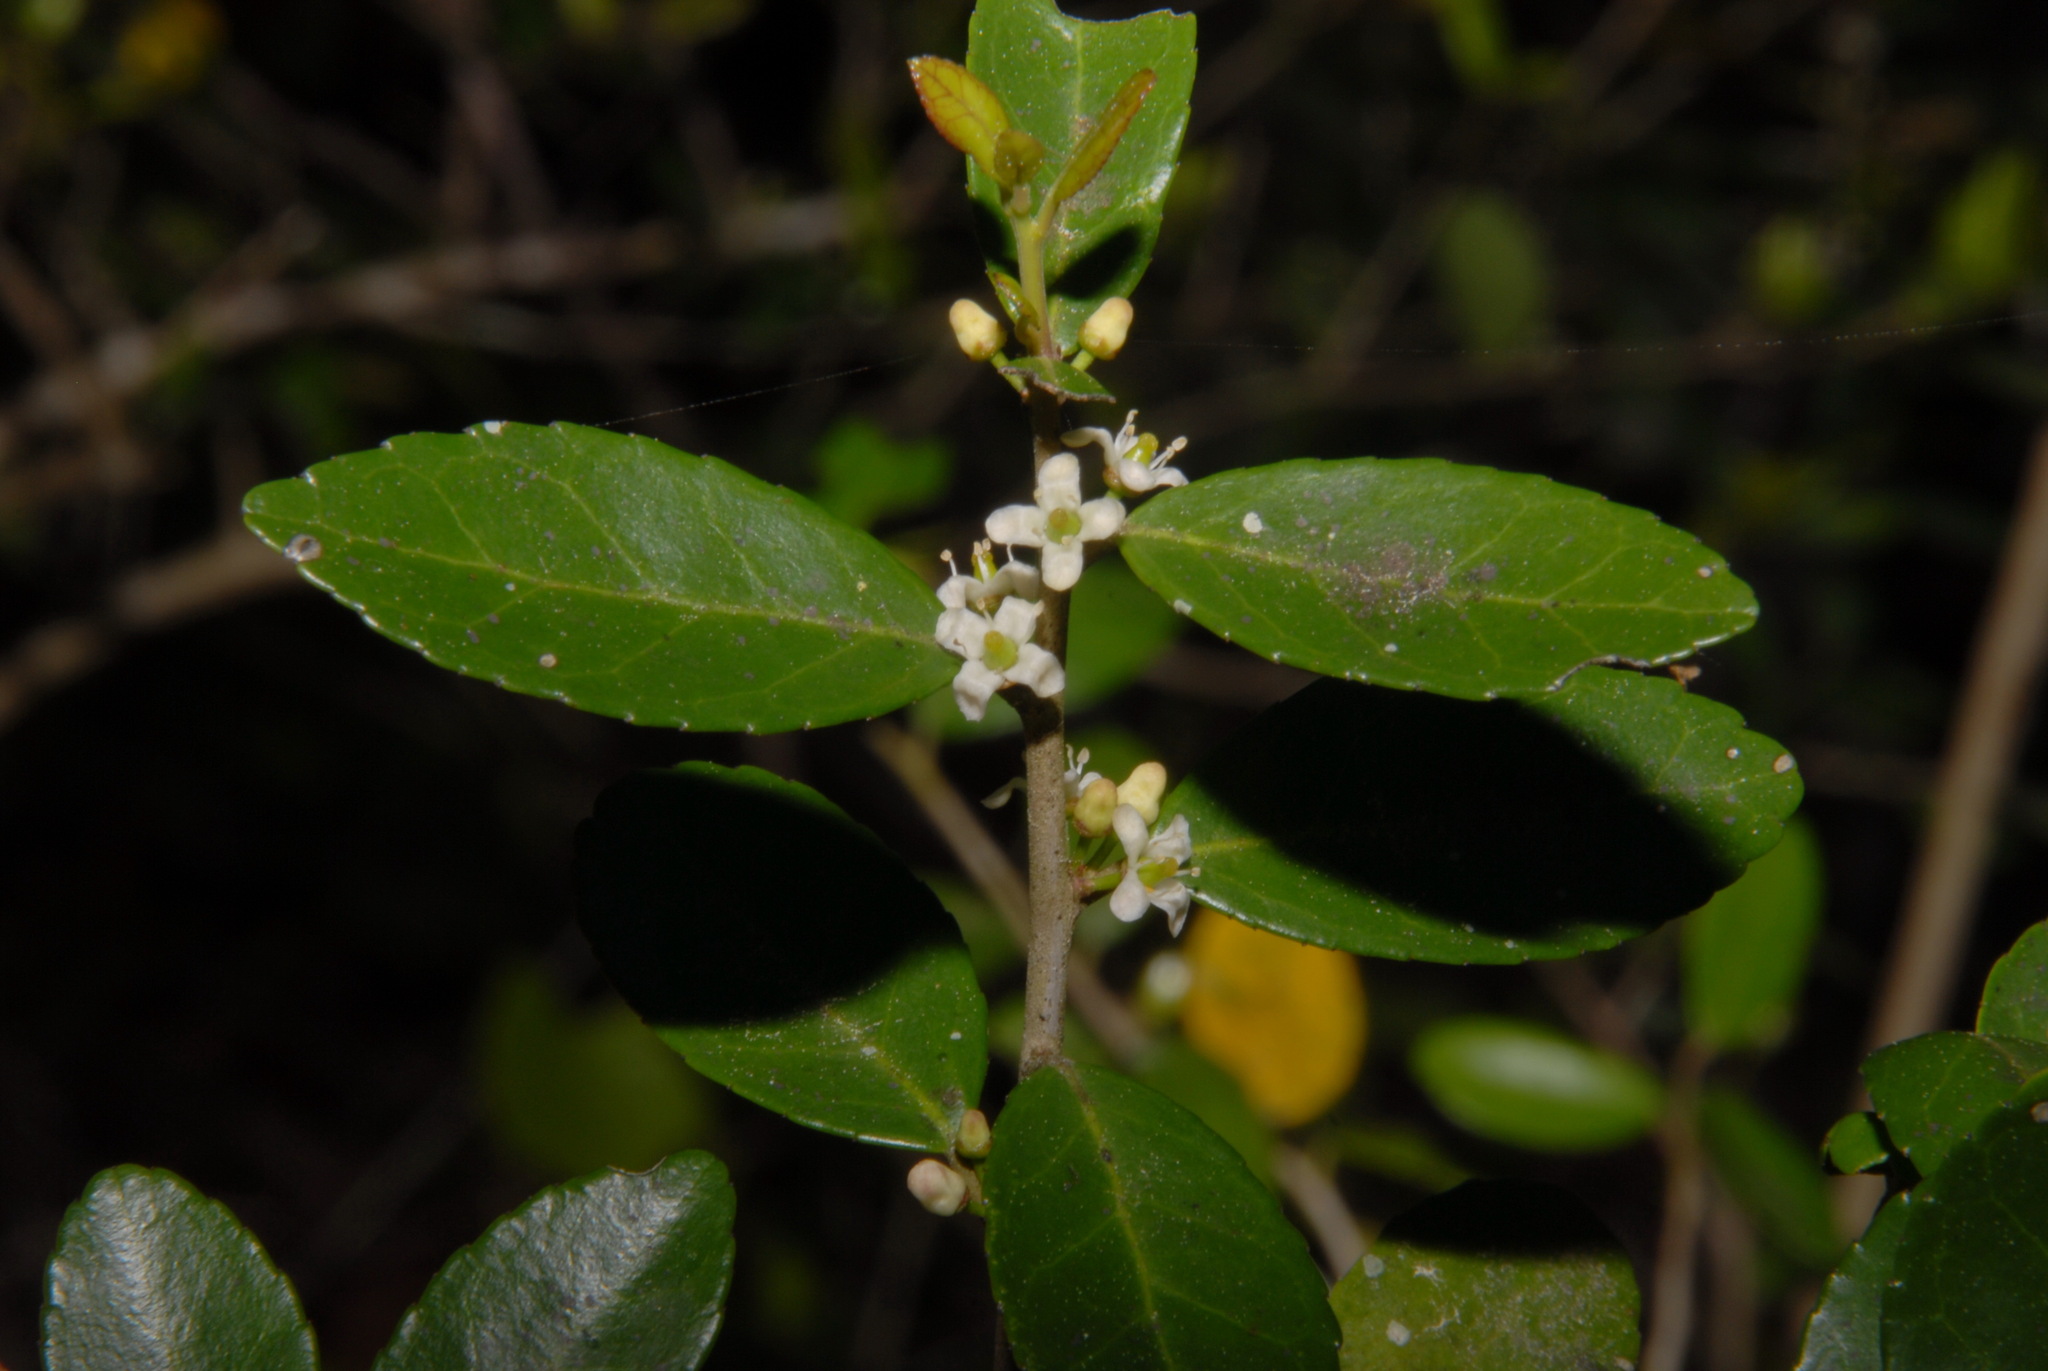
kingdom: Plantae
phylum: Tracheophyta
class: Magnoliopsida
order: Aquifoliales
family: Aquifoliaceae
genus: Ilex
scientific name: Ilex vomitoria
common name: Yaupon holly
